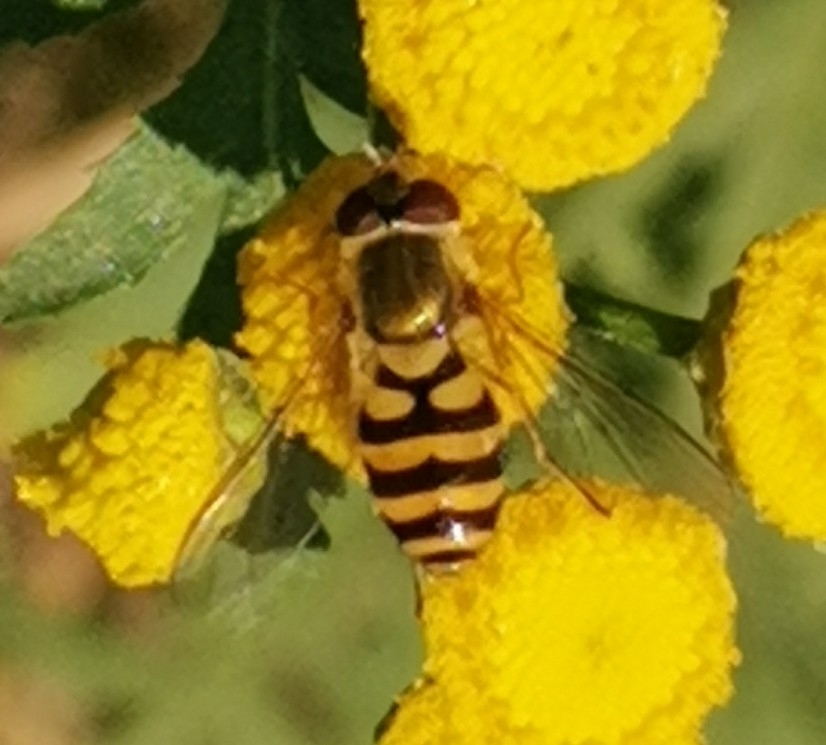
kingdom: Animalia
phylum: Arthropoda
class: Insecta
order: Diptera
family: Syrphidae
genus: Syrphus
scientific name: Syrphus
